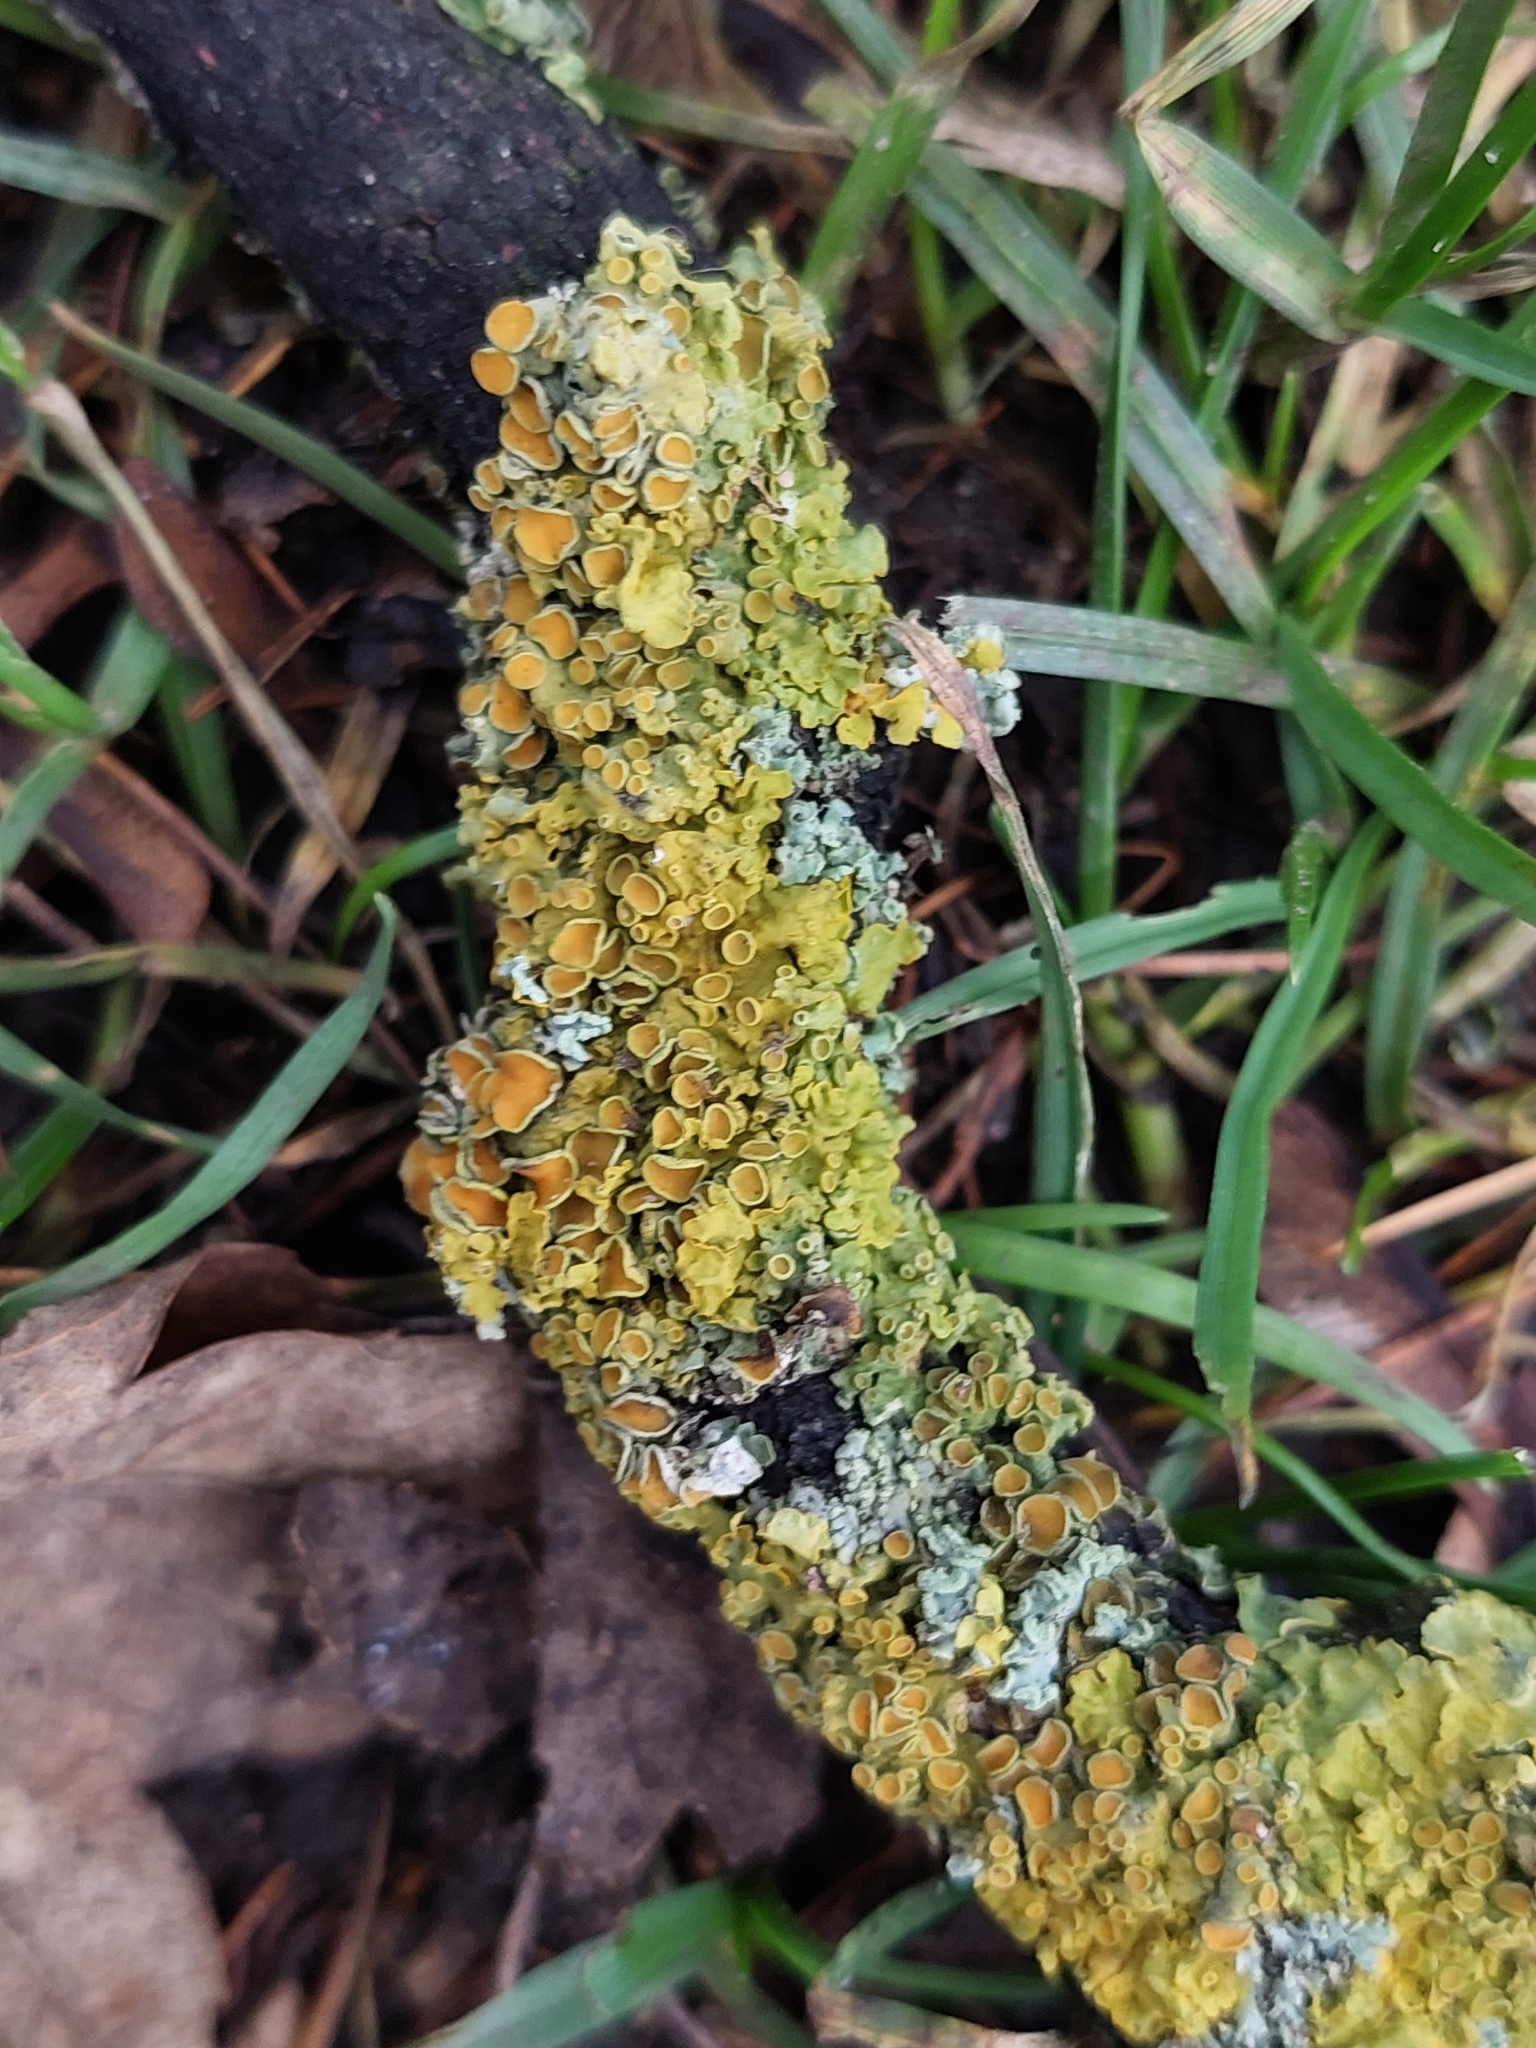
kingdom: Fungi
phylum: Ascomycota
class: Lecanoromycetes
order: Teloschistales
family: Teloschistaceae
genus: Xanthoria
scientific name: Xanthoria parietina
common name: Common orange lichen
